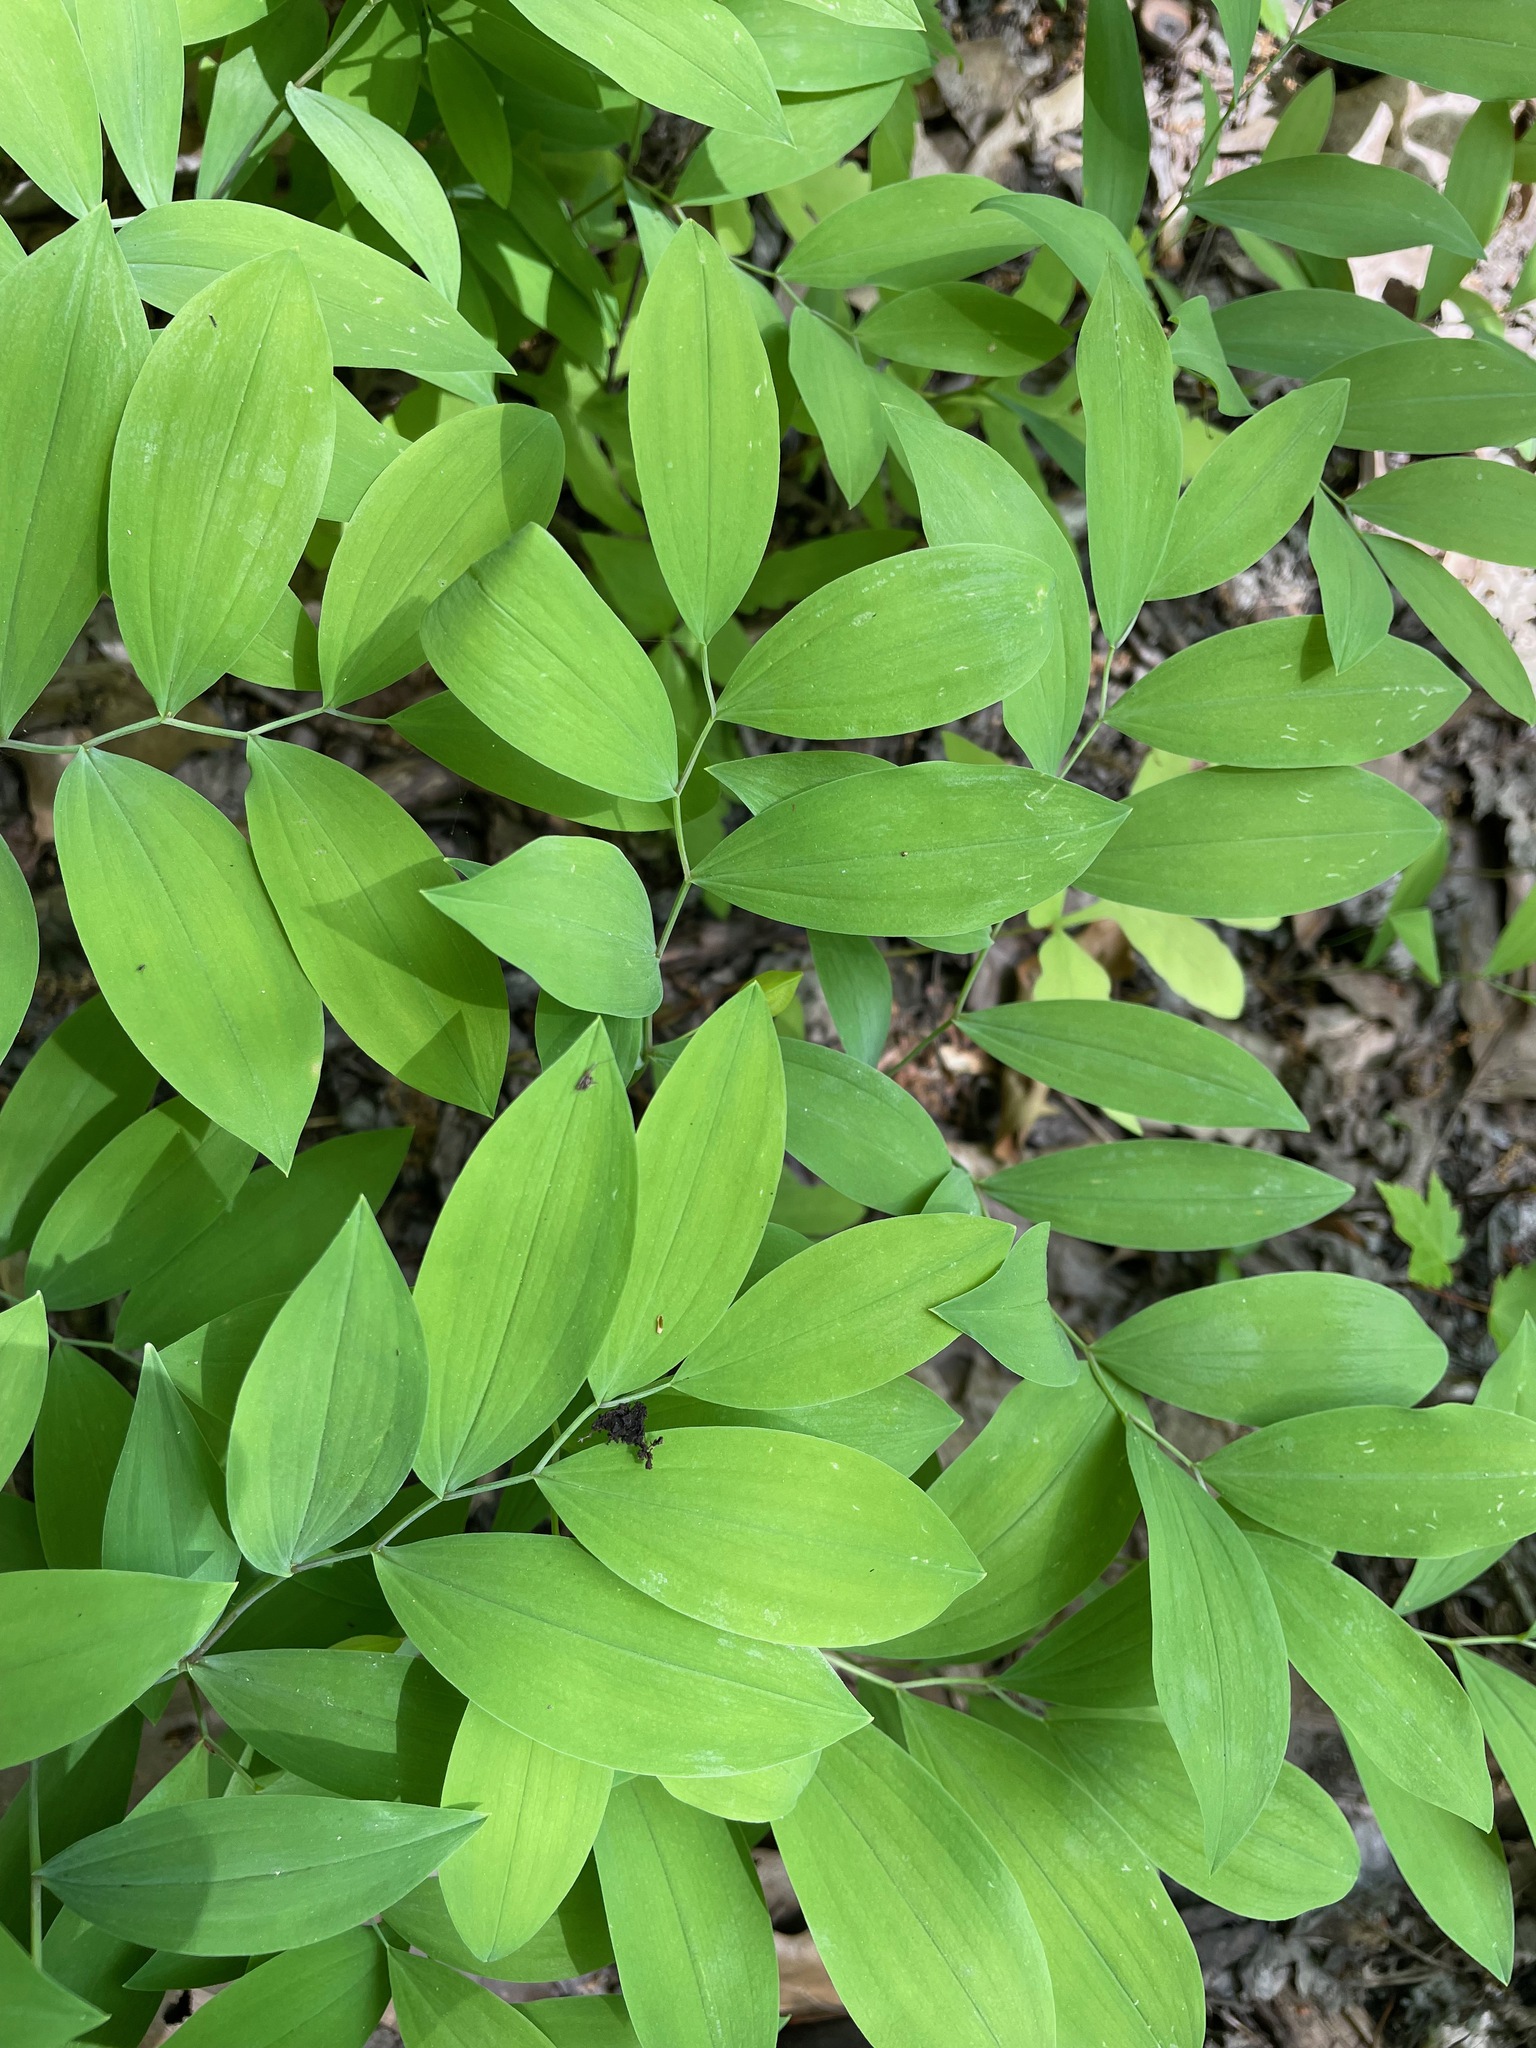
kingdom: Plantae
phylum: Tracheophyta
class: Liliopsida
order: Liliales
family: Colchicaceae
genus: Uvularia
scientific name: Uvularia sessilifolia
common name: Straw-lily
